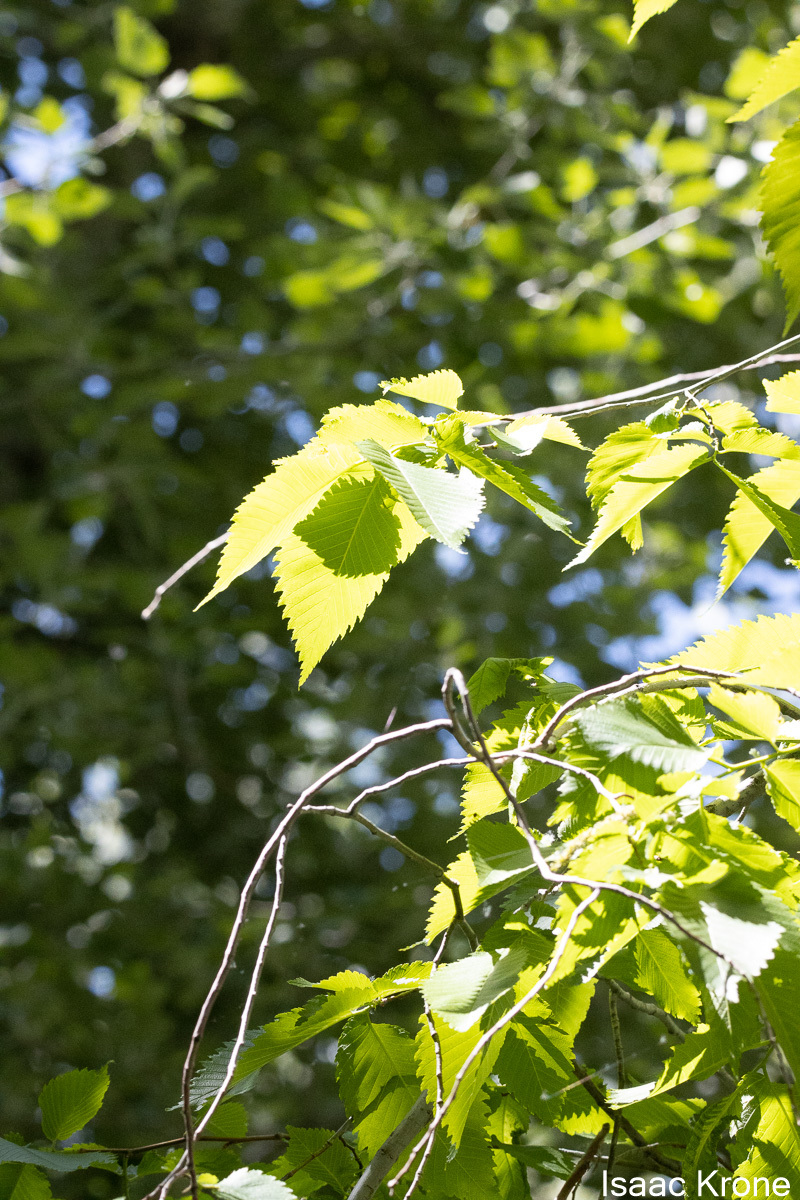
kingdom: Plantae
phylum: Tracheophyta
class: Magnoliopsida
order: Rosales
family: Ulmaceae
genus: Ulmus
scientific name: Ulmus americana
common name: American elm
